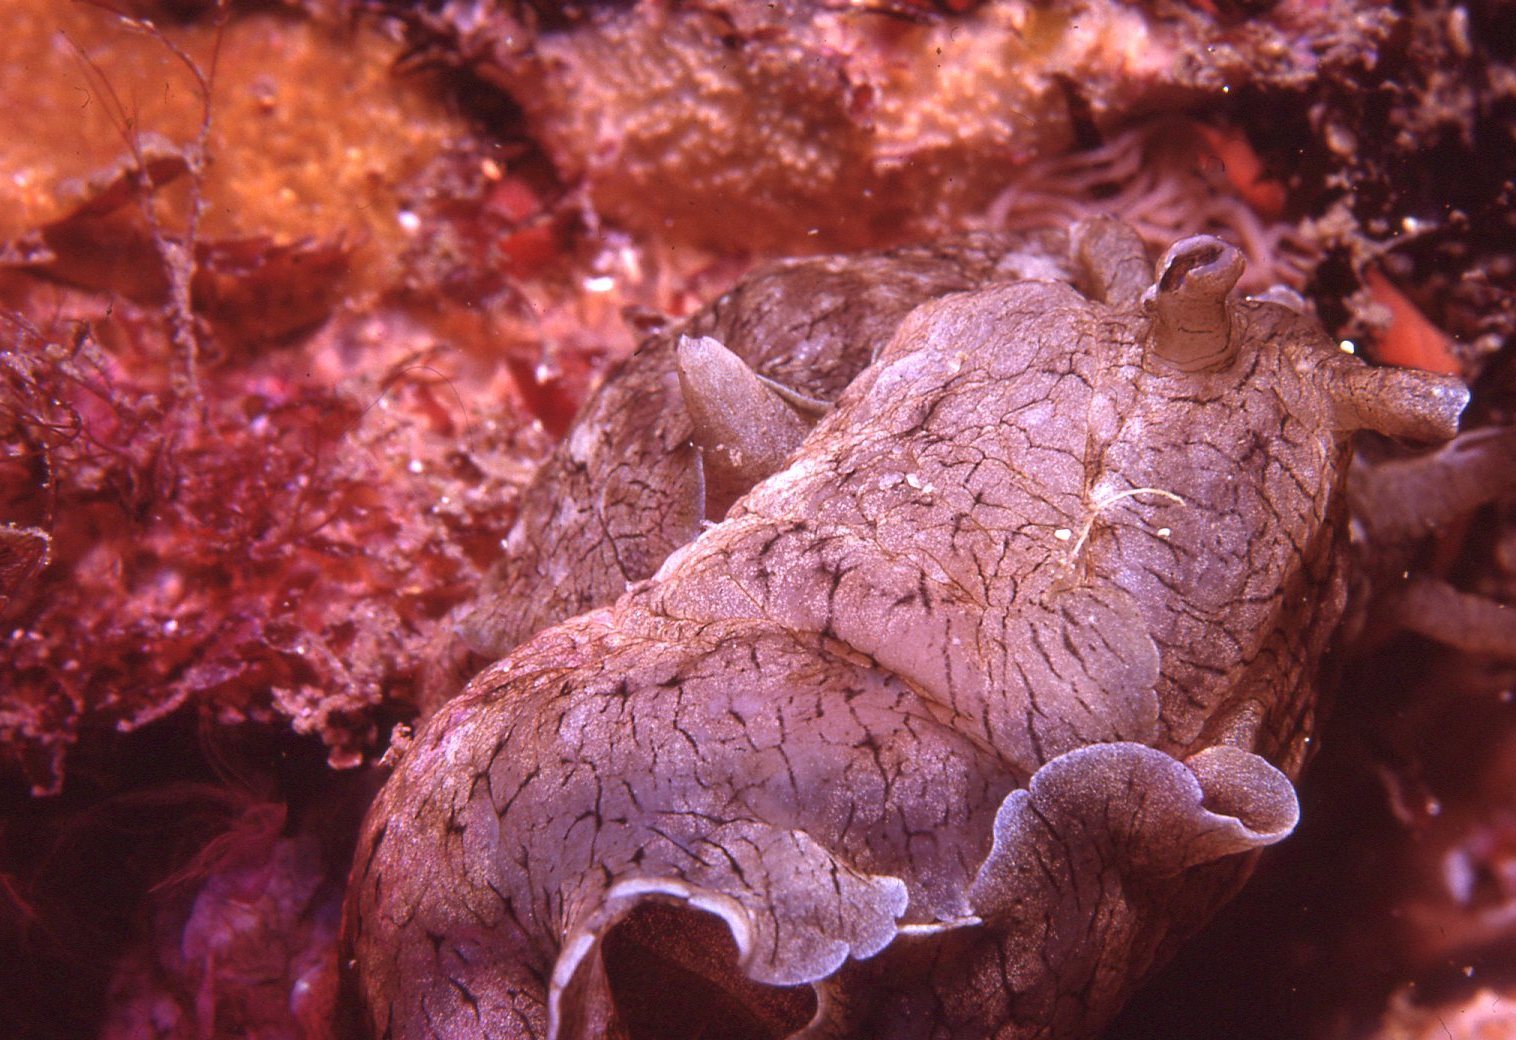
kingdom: Animalia
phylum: Mollusca
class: Gastropoda
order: Aplysiida
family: Aplysiidae
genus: Aplysia
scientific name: Aplysia sydneyensis
